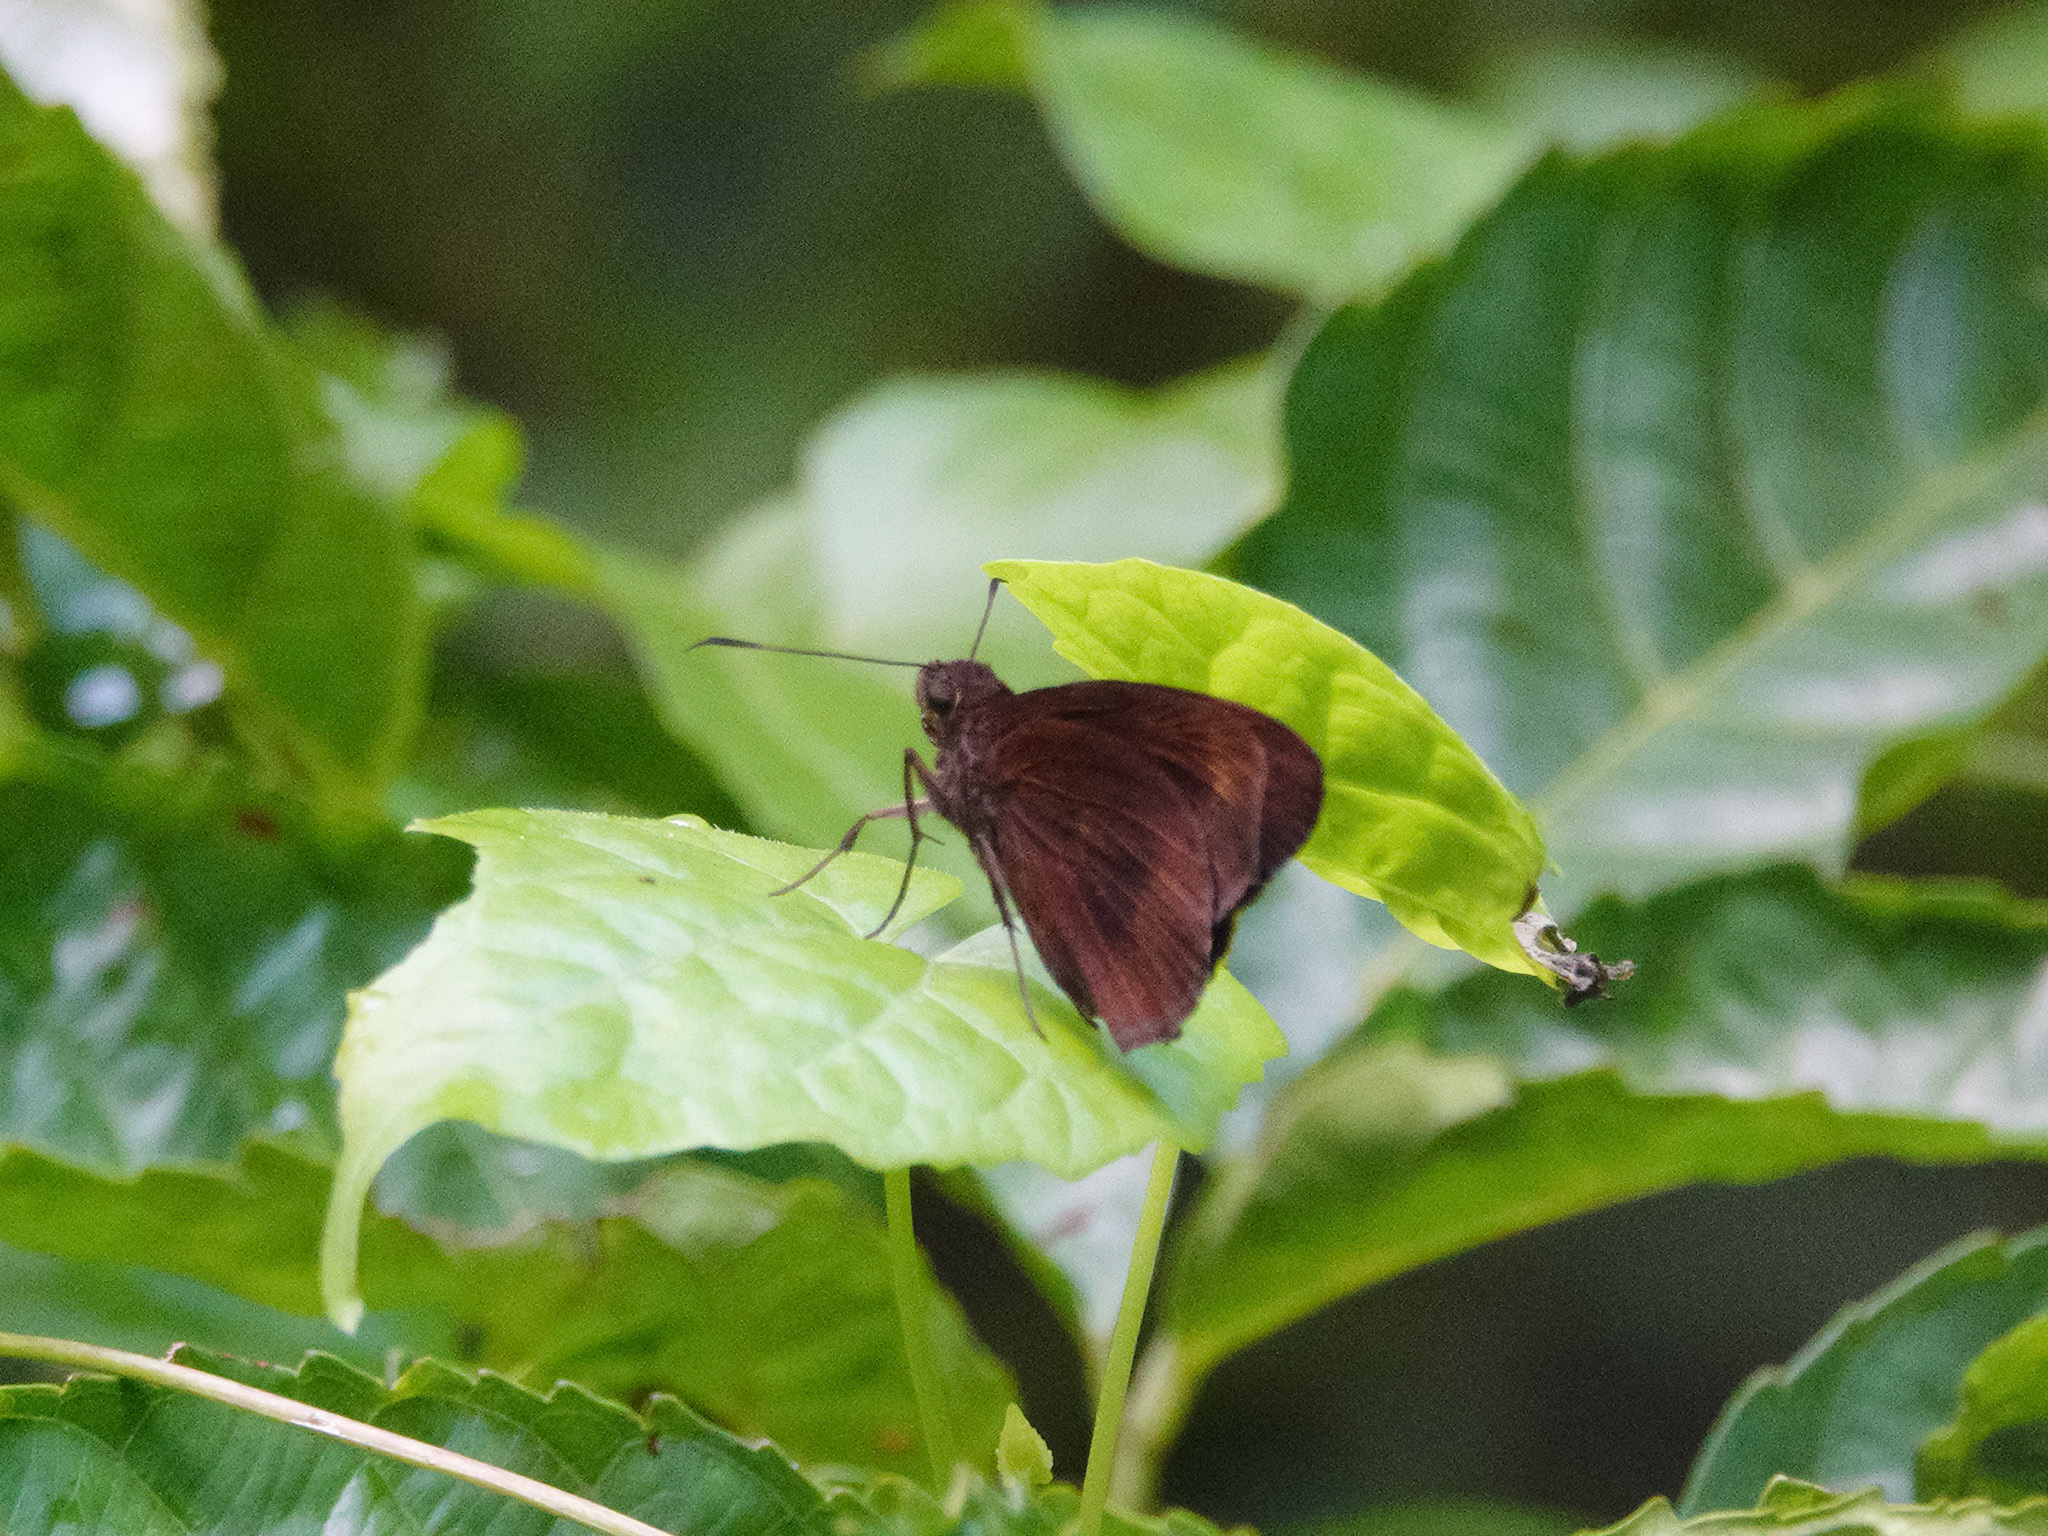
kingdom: Animalia
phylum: Arthropoda
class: Insecta
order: Lepidoptera
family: Hesperiidae
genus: Ancistroides
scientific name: Ancistroides nigrita
